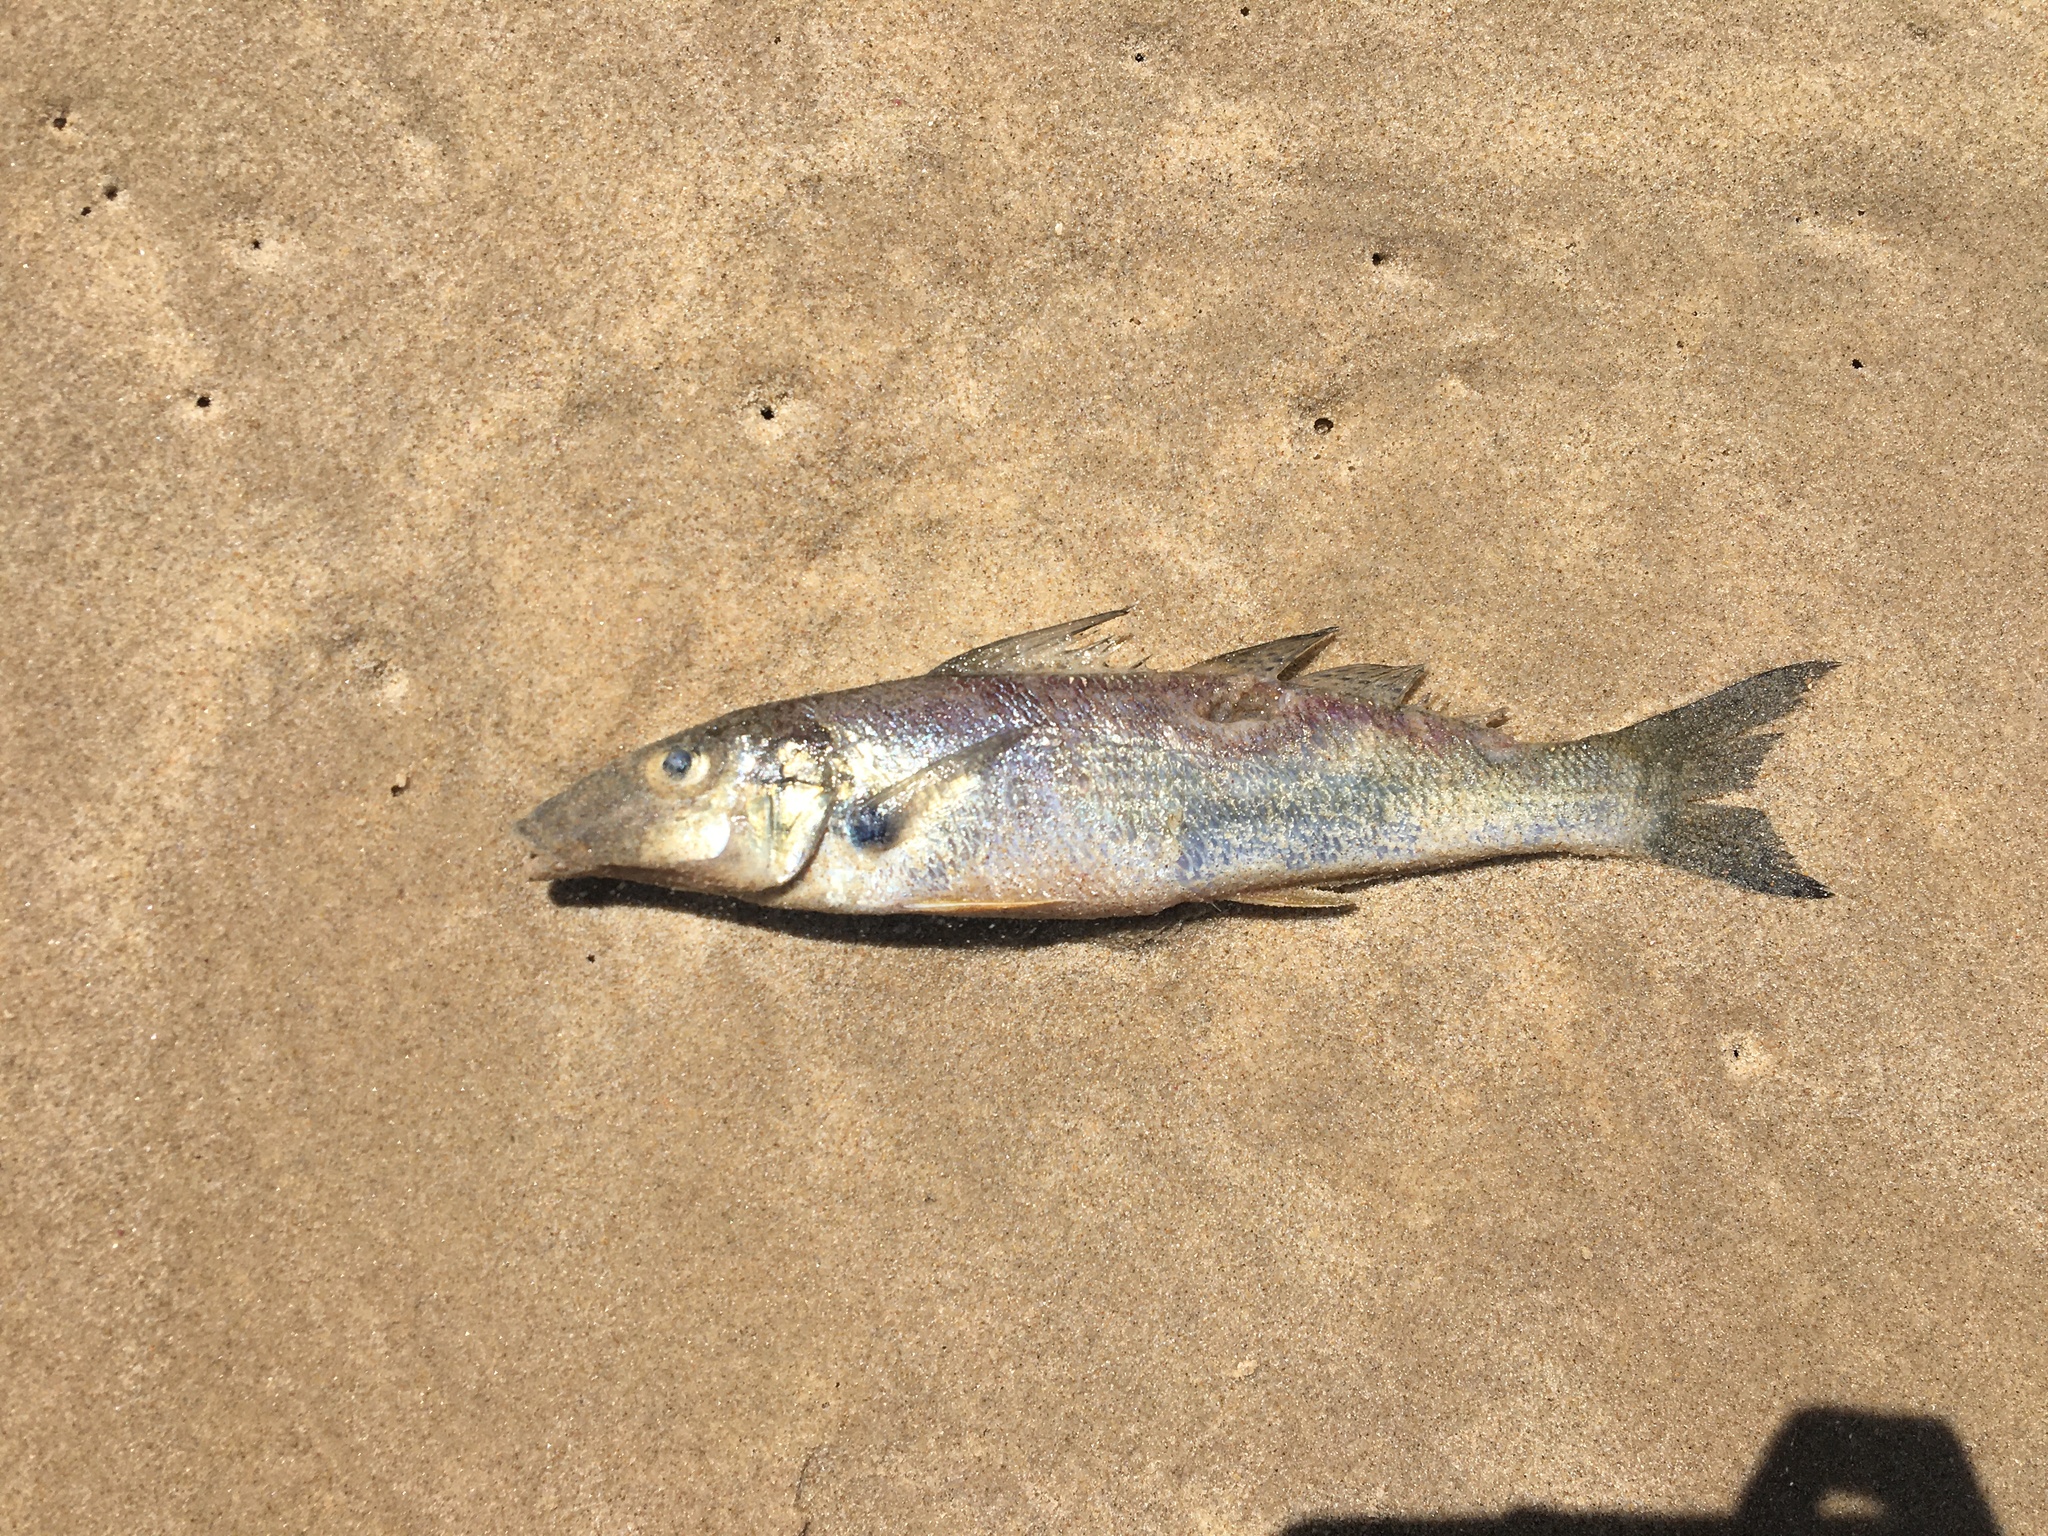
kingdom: Animalia
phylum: Chordata
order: Perciformes
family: Sillaginidae
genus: Sillago
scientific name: Sillago ciliata
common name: Sand sillago
